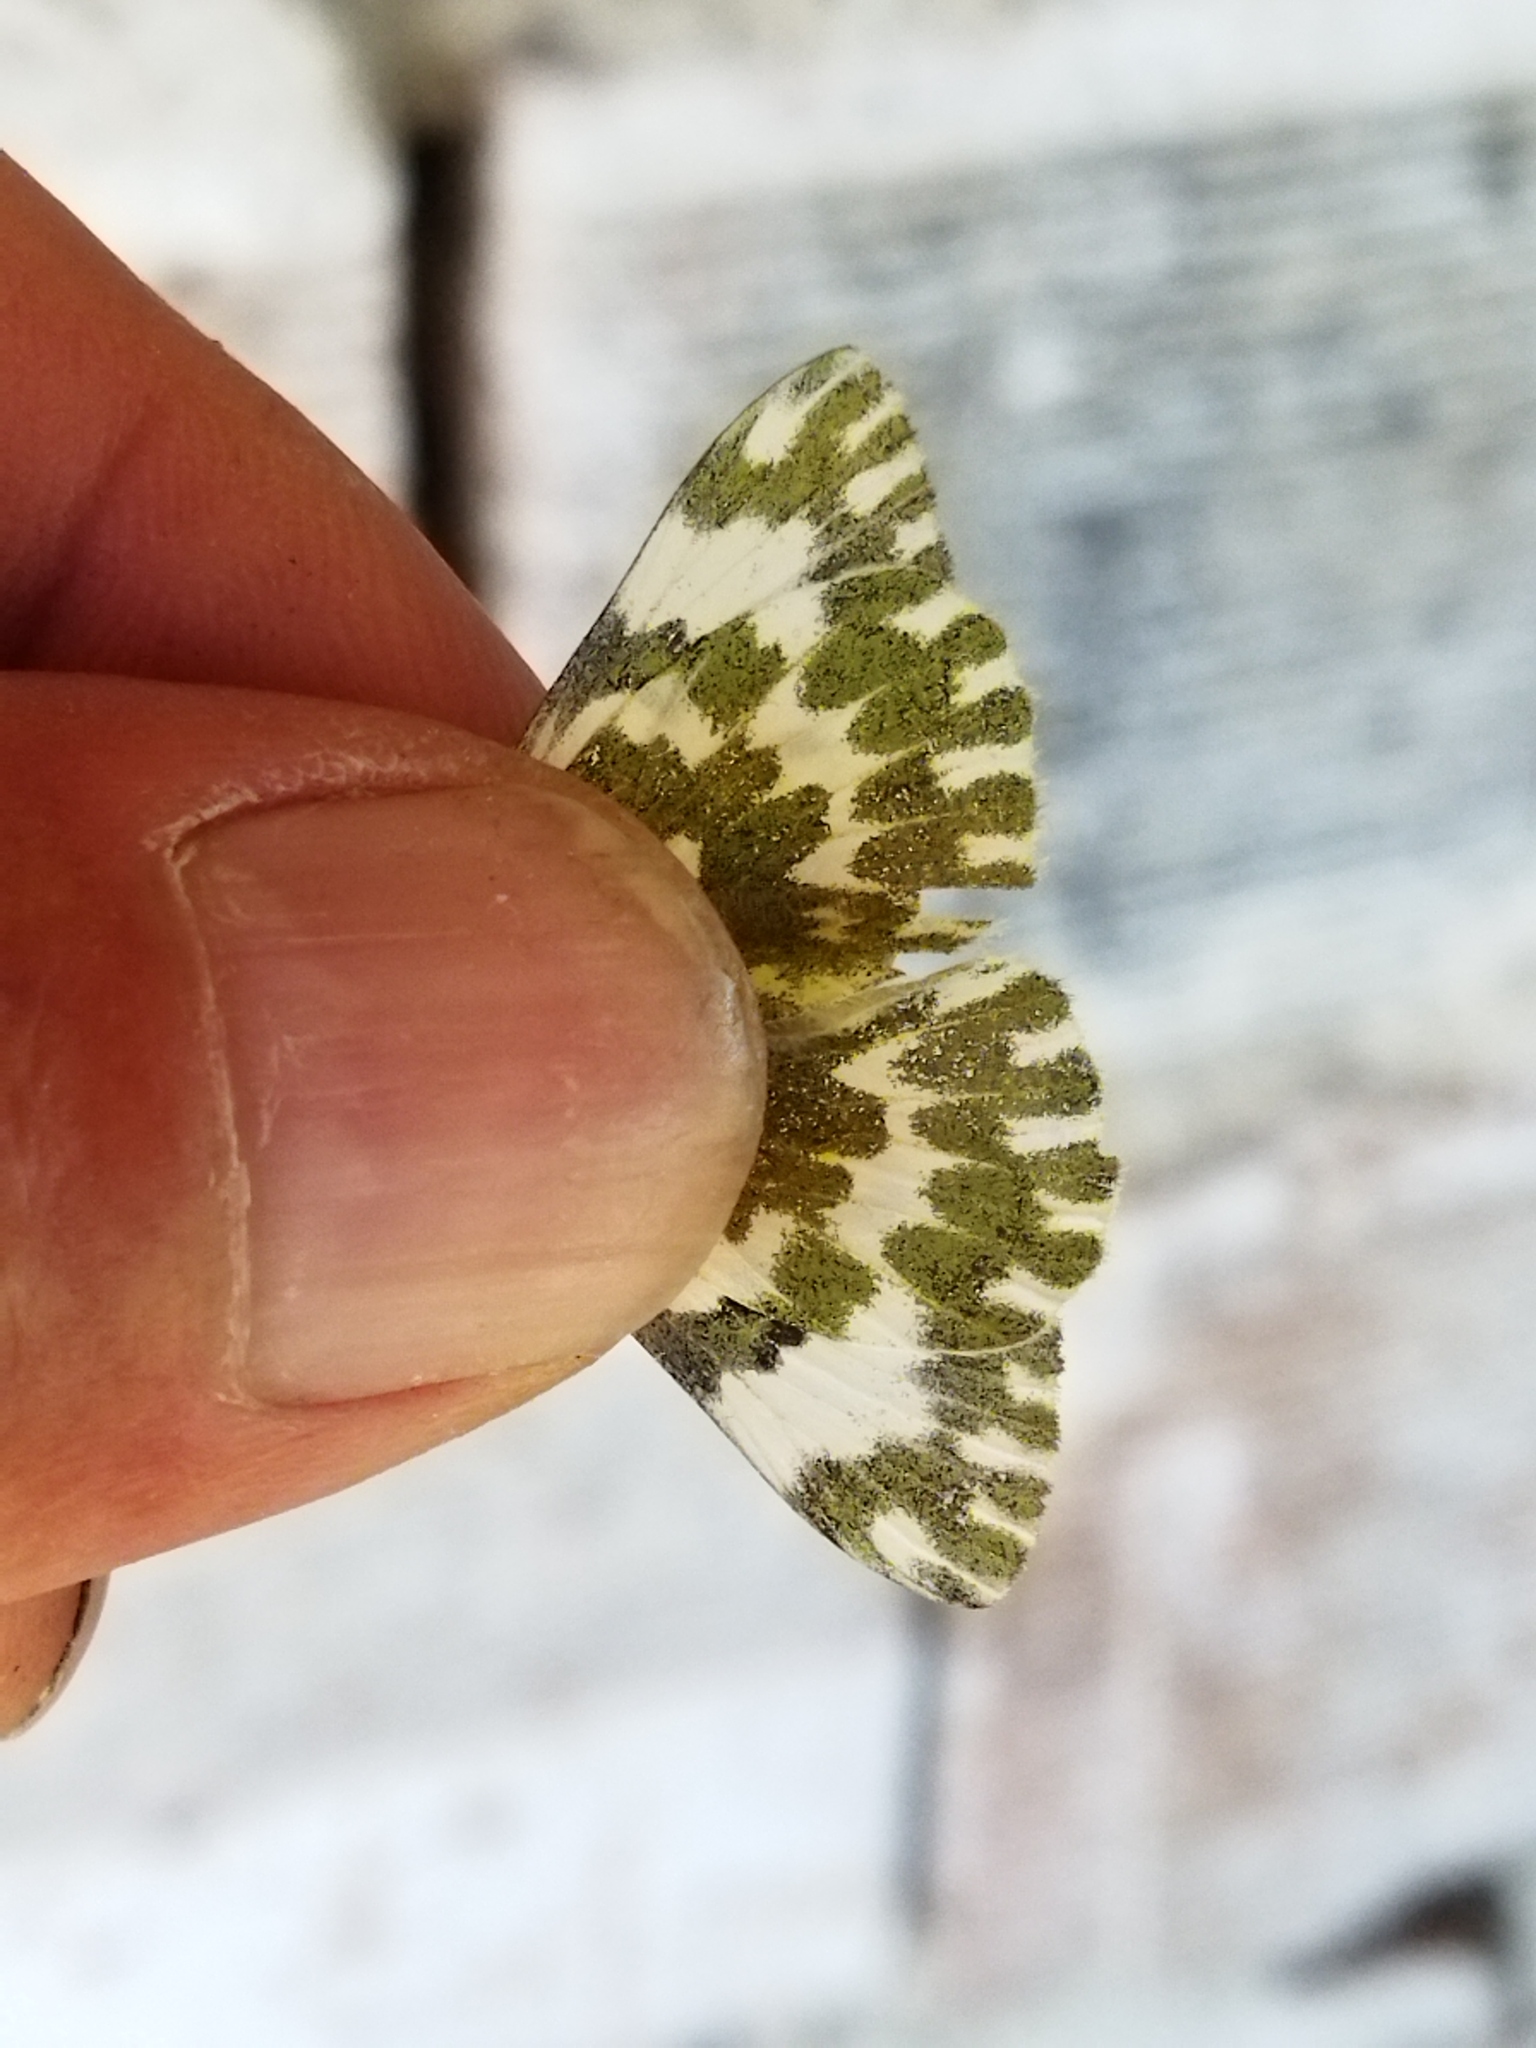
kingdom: Animalia
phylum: Arthropoda
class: Insecta
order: Lepidoptera
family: Pieridae
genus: Pontia
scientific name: Pontia edusa
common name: Eastern bath white
